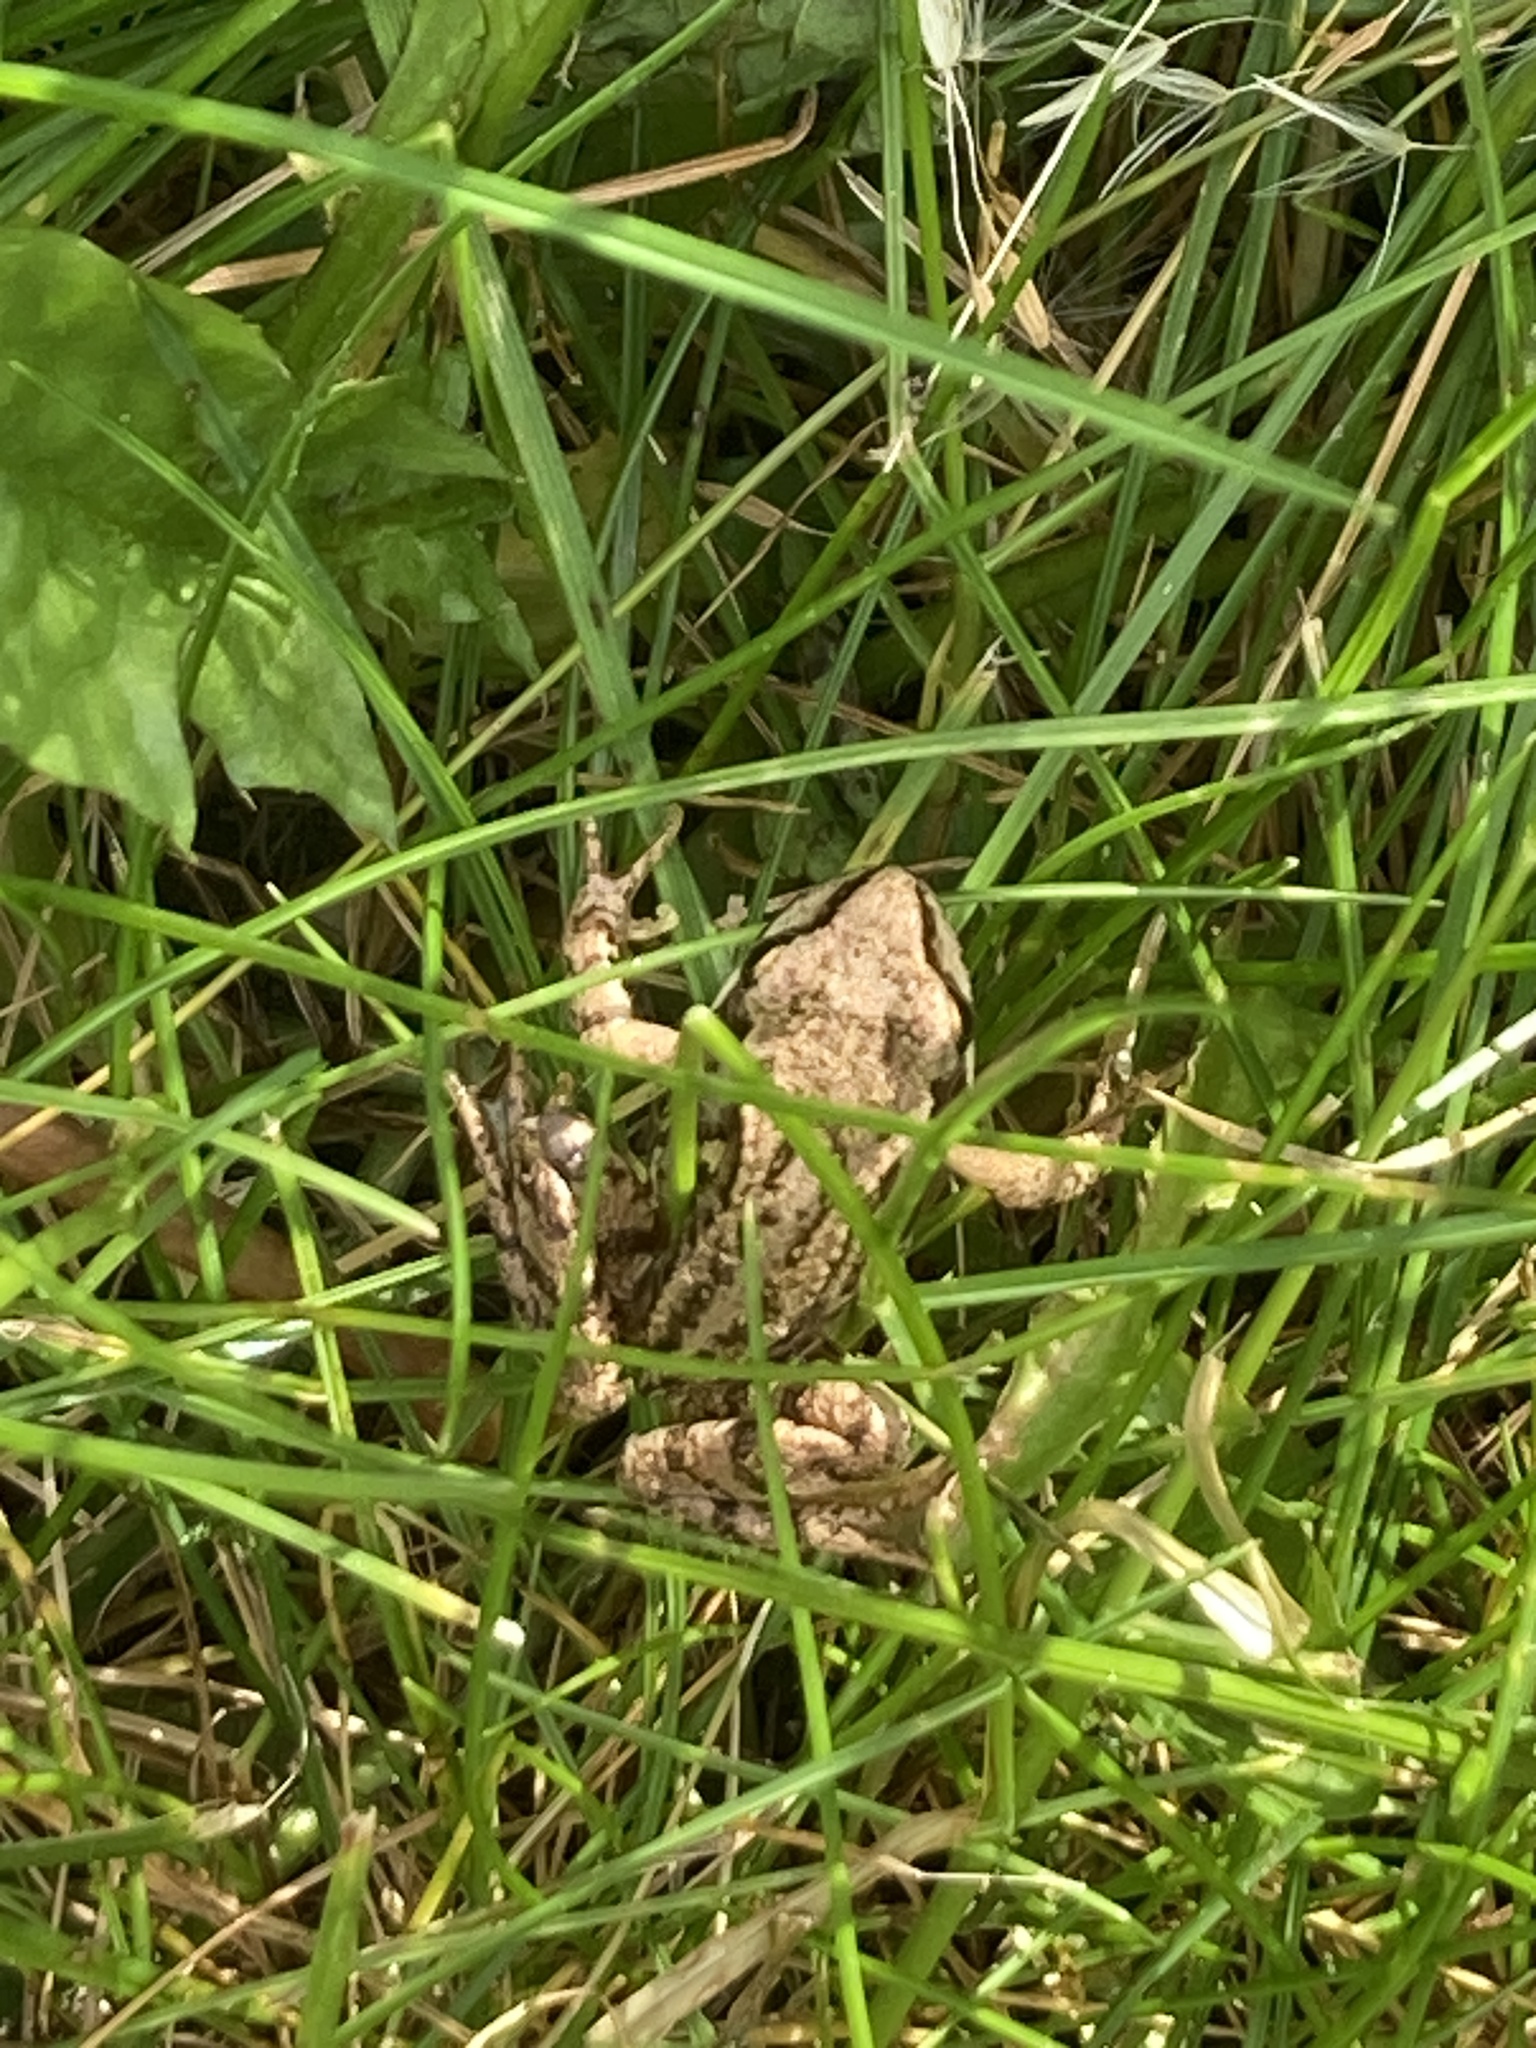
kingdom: Animalia
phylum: Chordata
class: Amphibia
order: Anura
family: Ranidae
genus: Rana
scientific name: Rana temporaria
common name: Common frog
